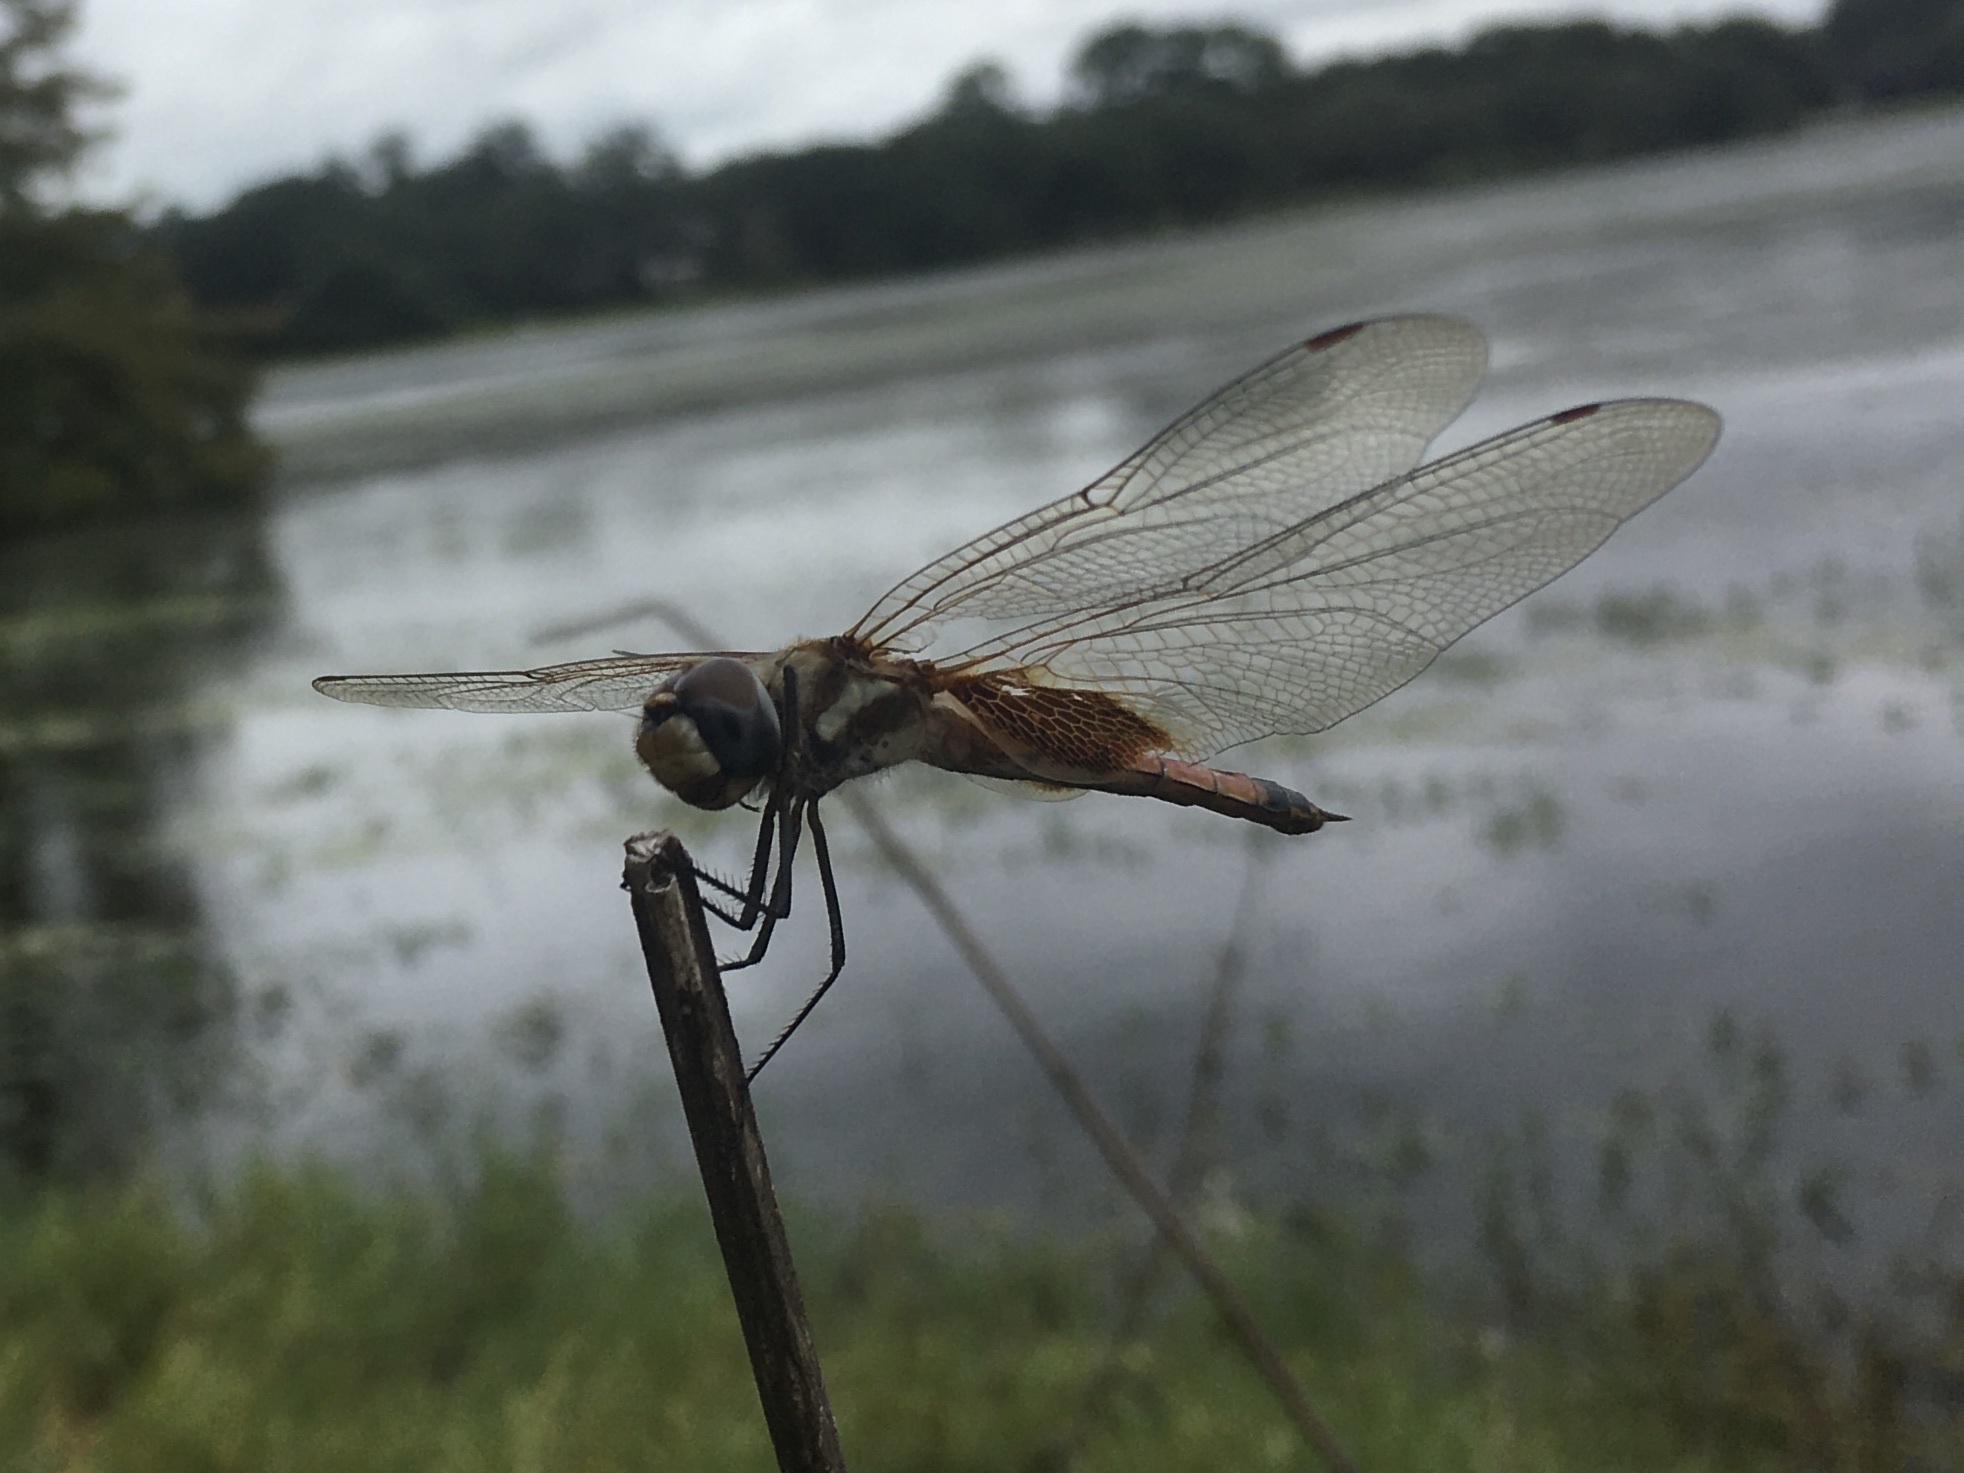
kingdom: Animalia
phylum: Arthropoda
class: Insecta
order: Odonata
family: Libellulidae
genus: Tramea
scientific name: Tramea darwini
